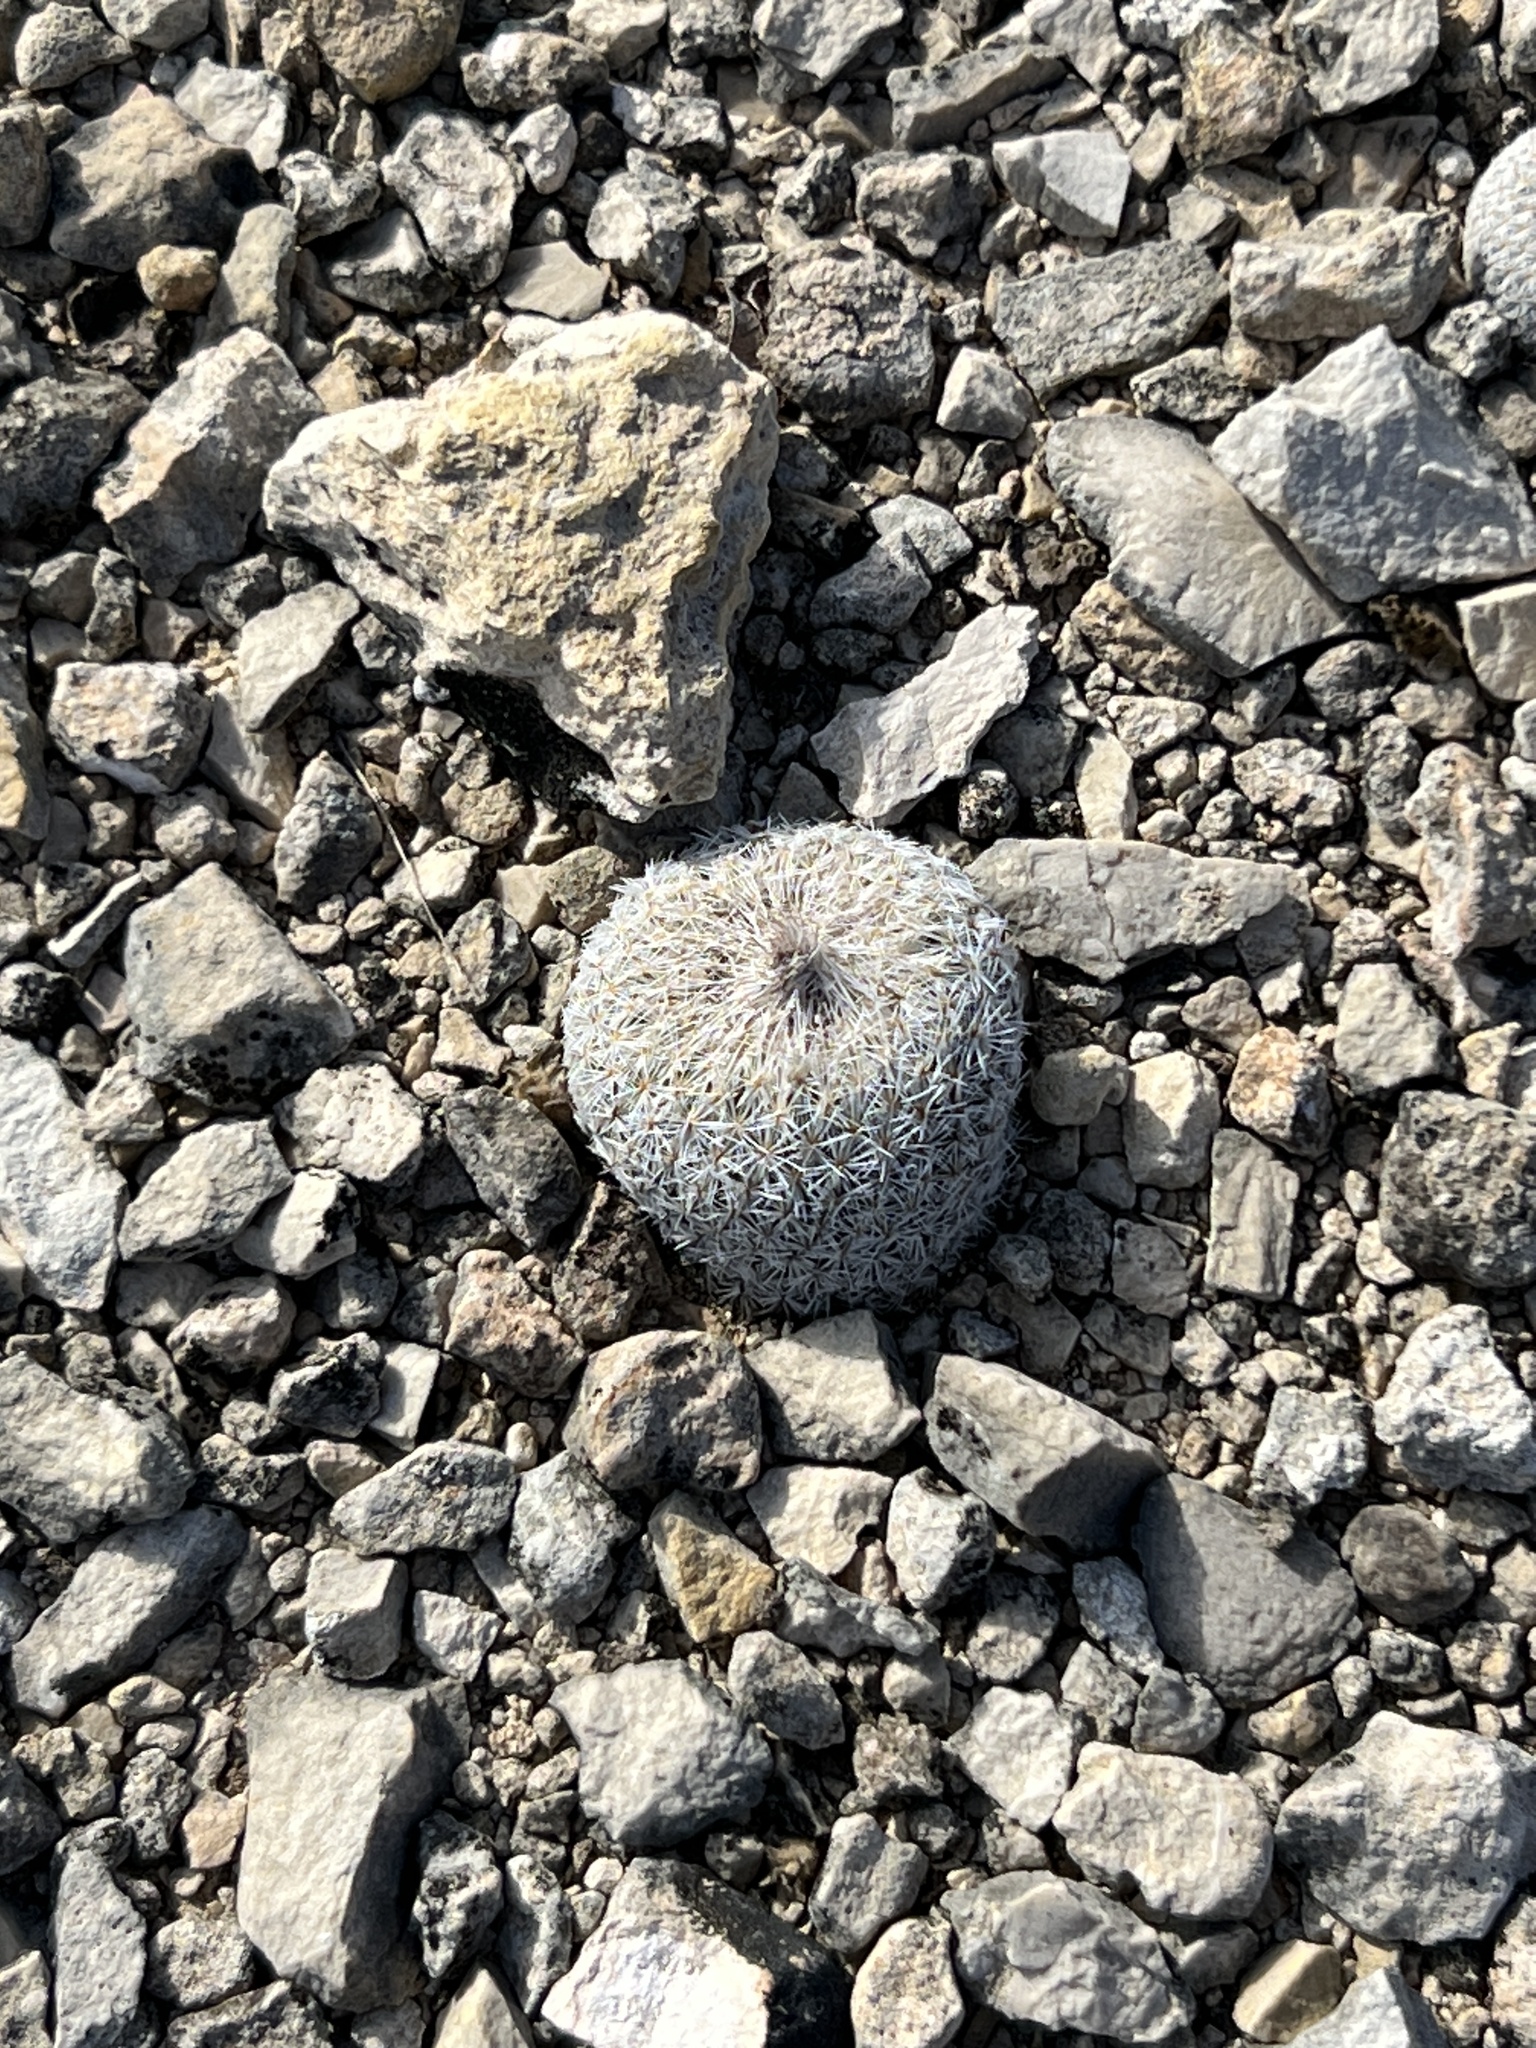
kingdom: Plantae
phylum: Tracheophyta
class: Magnoliopsida
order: Caryophyllales
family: Cactaceae
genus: Epithelantha
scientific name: Epithelantha micromeris
